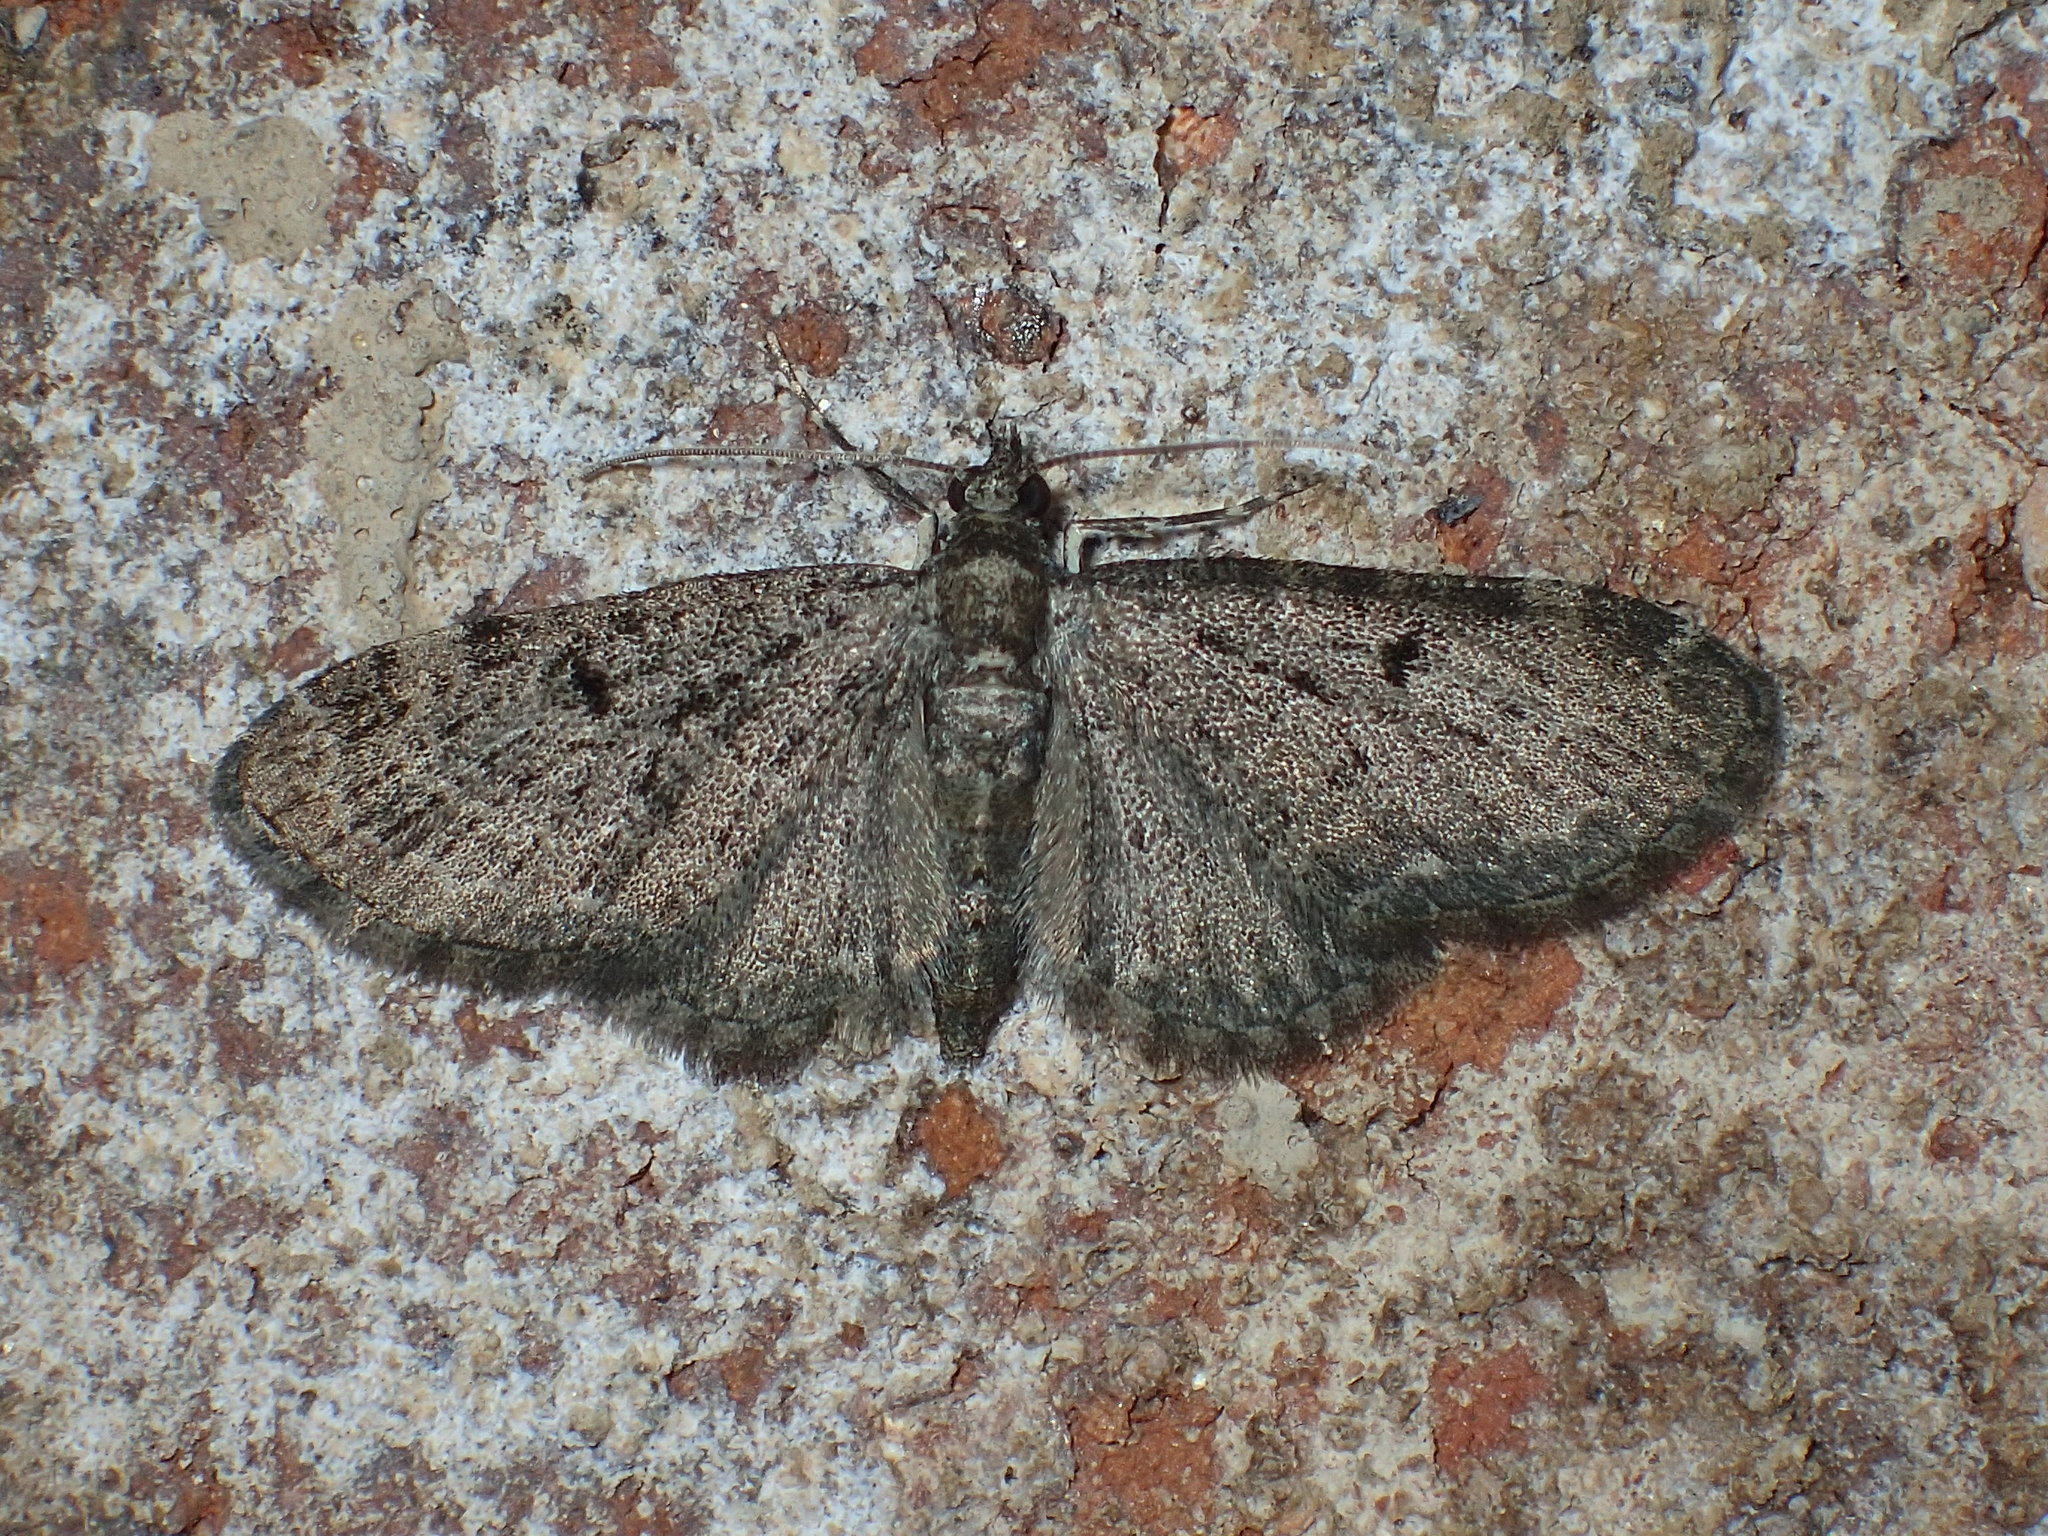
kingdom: Animalia
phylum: Arthropoda
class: Insecta
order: Lepidoptera
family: Geometridae
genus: Eupithecia
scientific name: Eupithecia miserulata
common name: Common eupithecia
